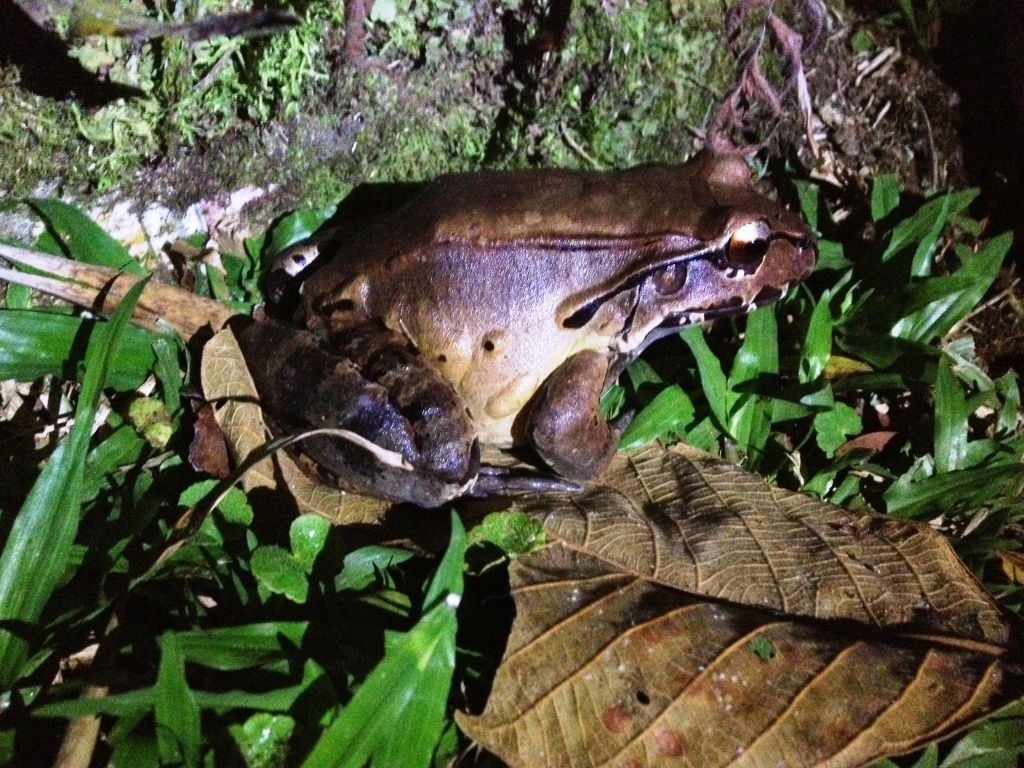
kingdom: Animalia
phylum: Chordata
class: Amphibia
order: Anura
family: Leptodactylidae
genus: Leptodactylus
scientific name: Leptodactylus savagei
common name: Savage's thin-toed frog
